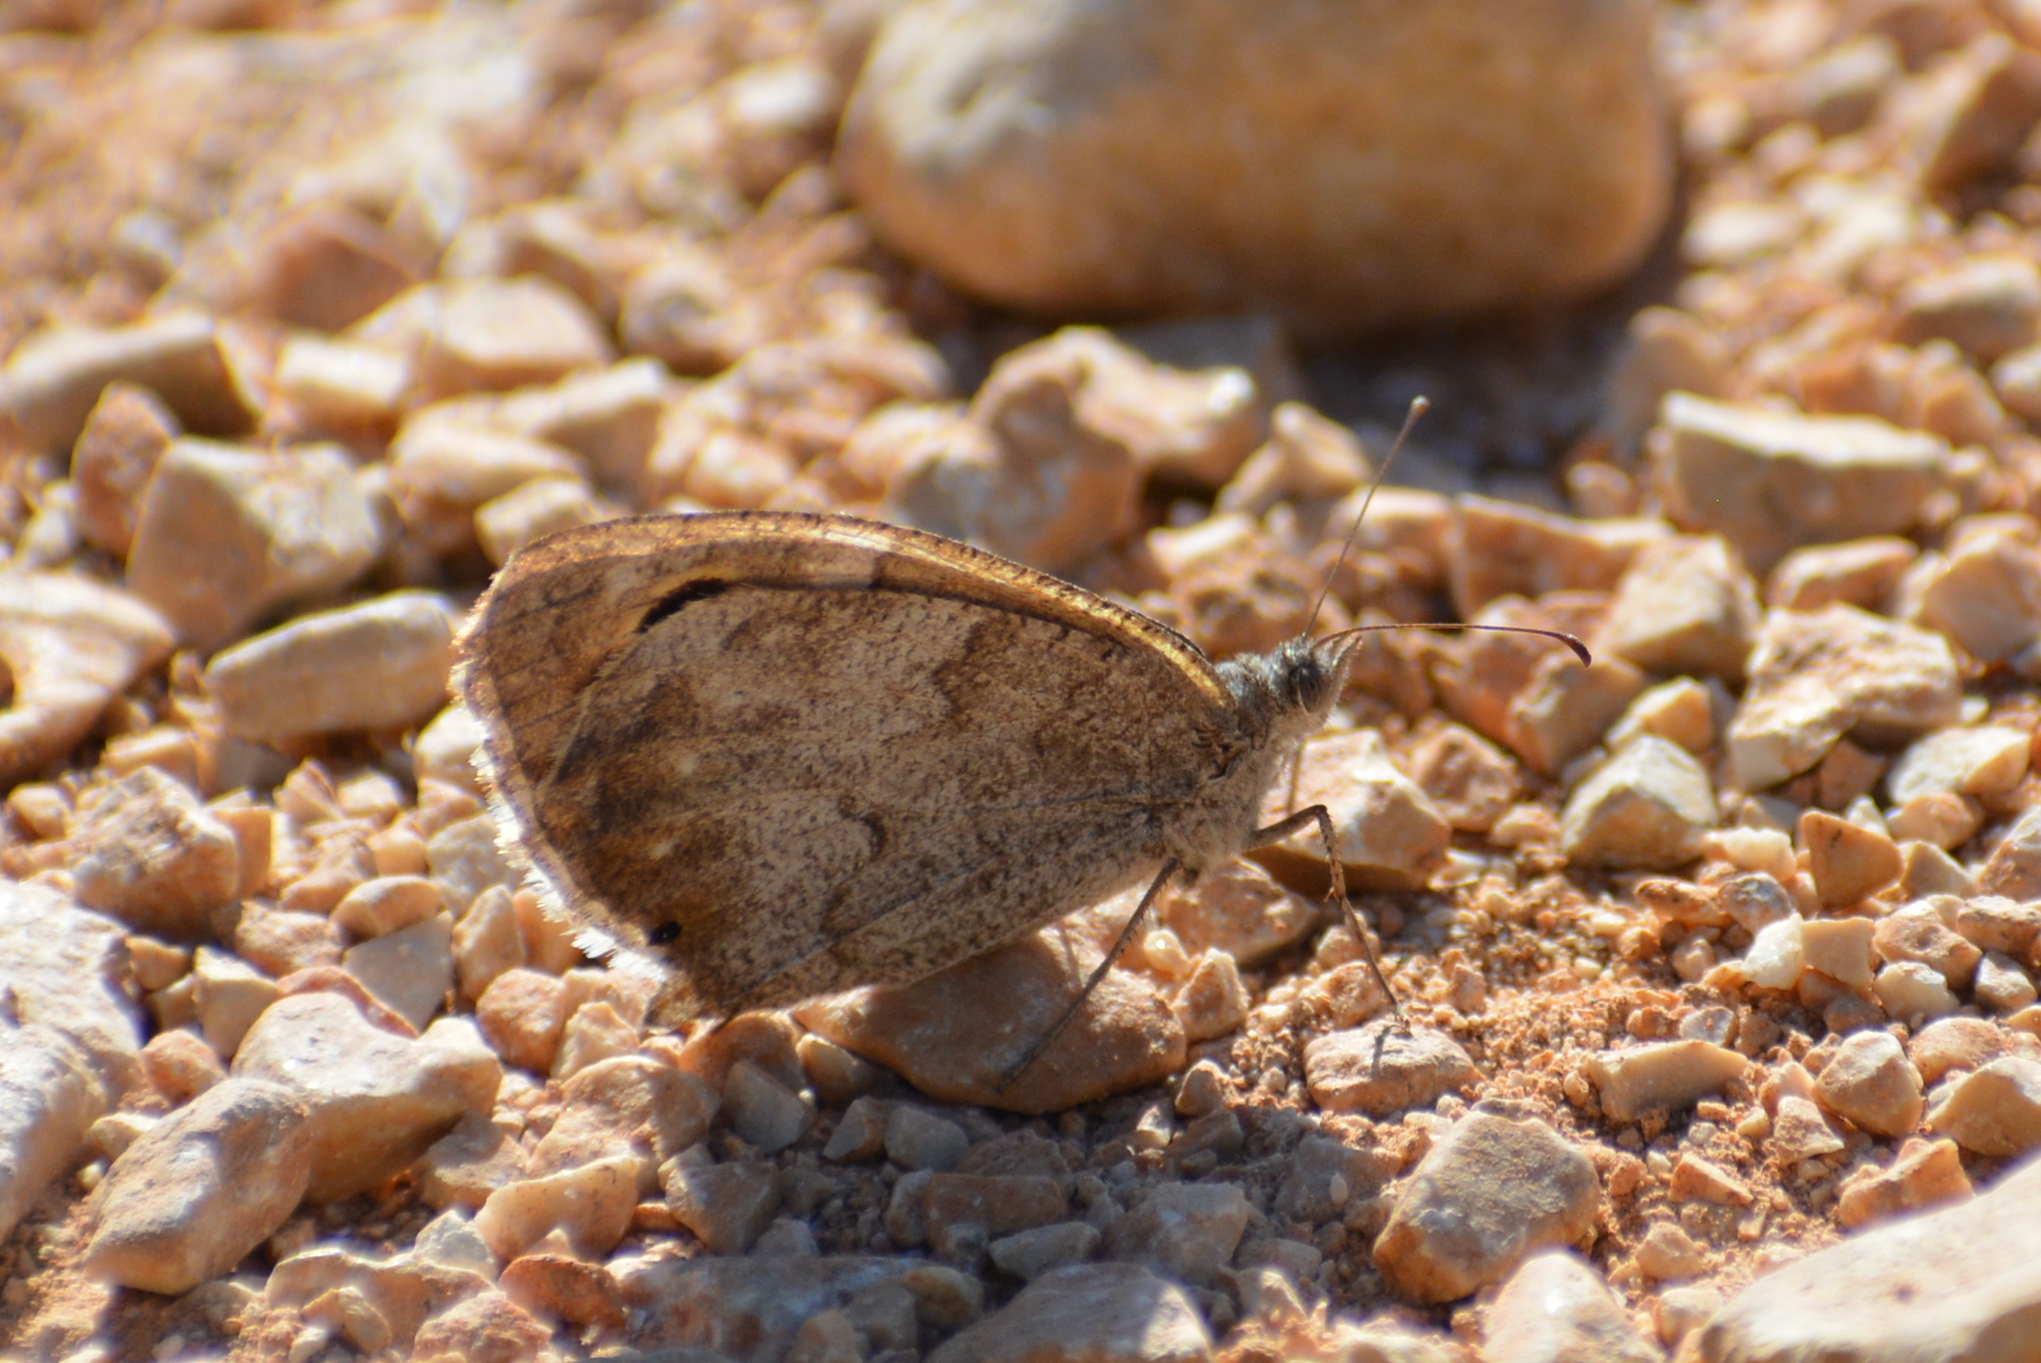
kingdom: Animalia
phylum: Arthropoda
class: Insecta
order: Lepidoptera
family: Nymphalidae
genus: Hipparchia
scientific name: Hipparchia statilinus
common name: Tree grayling
